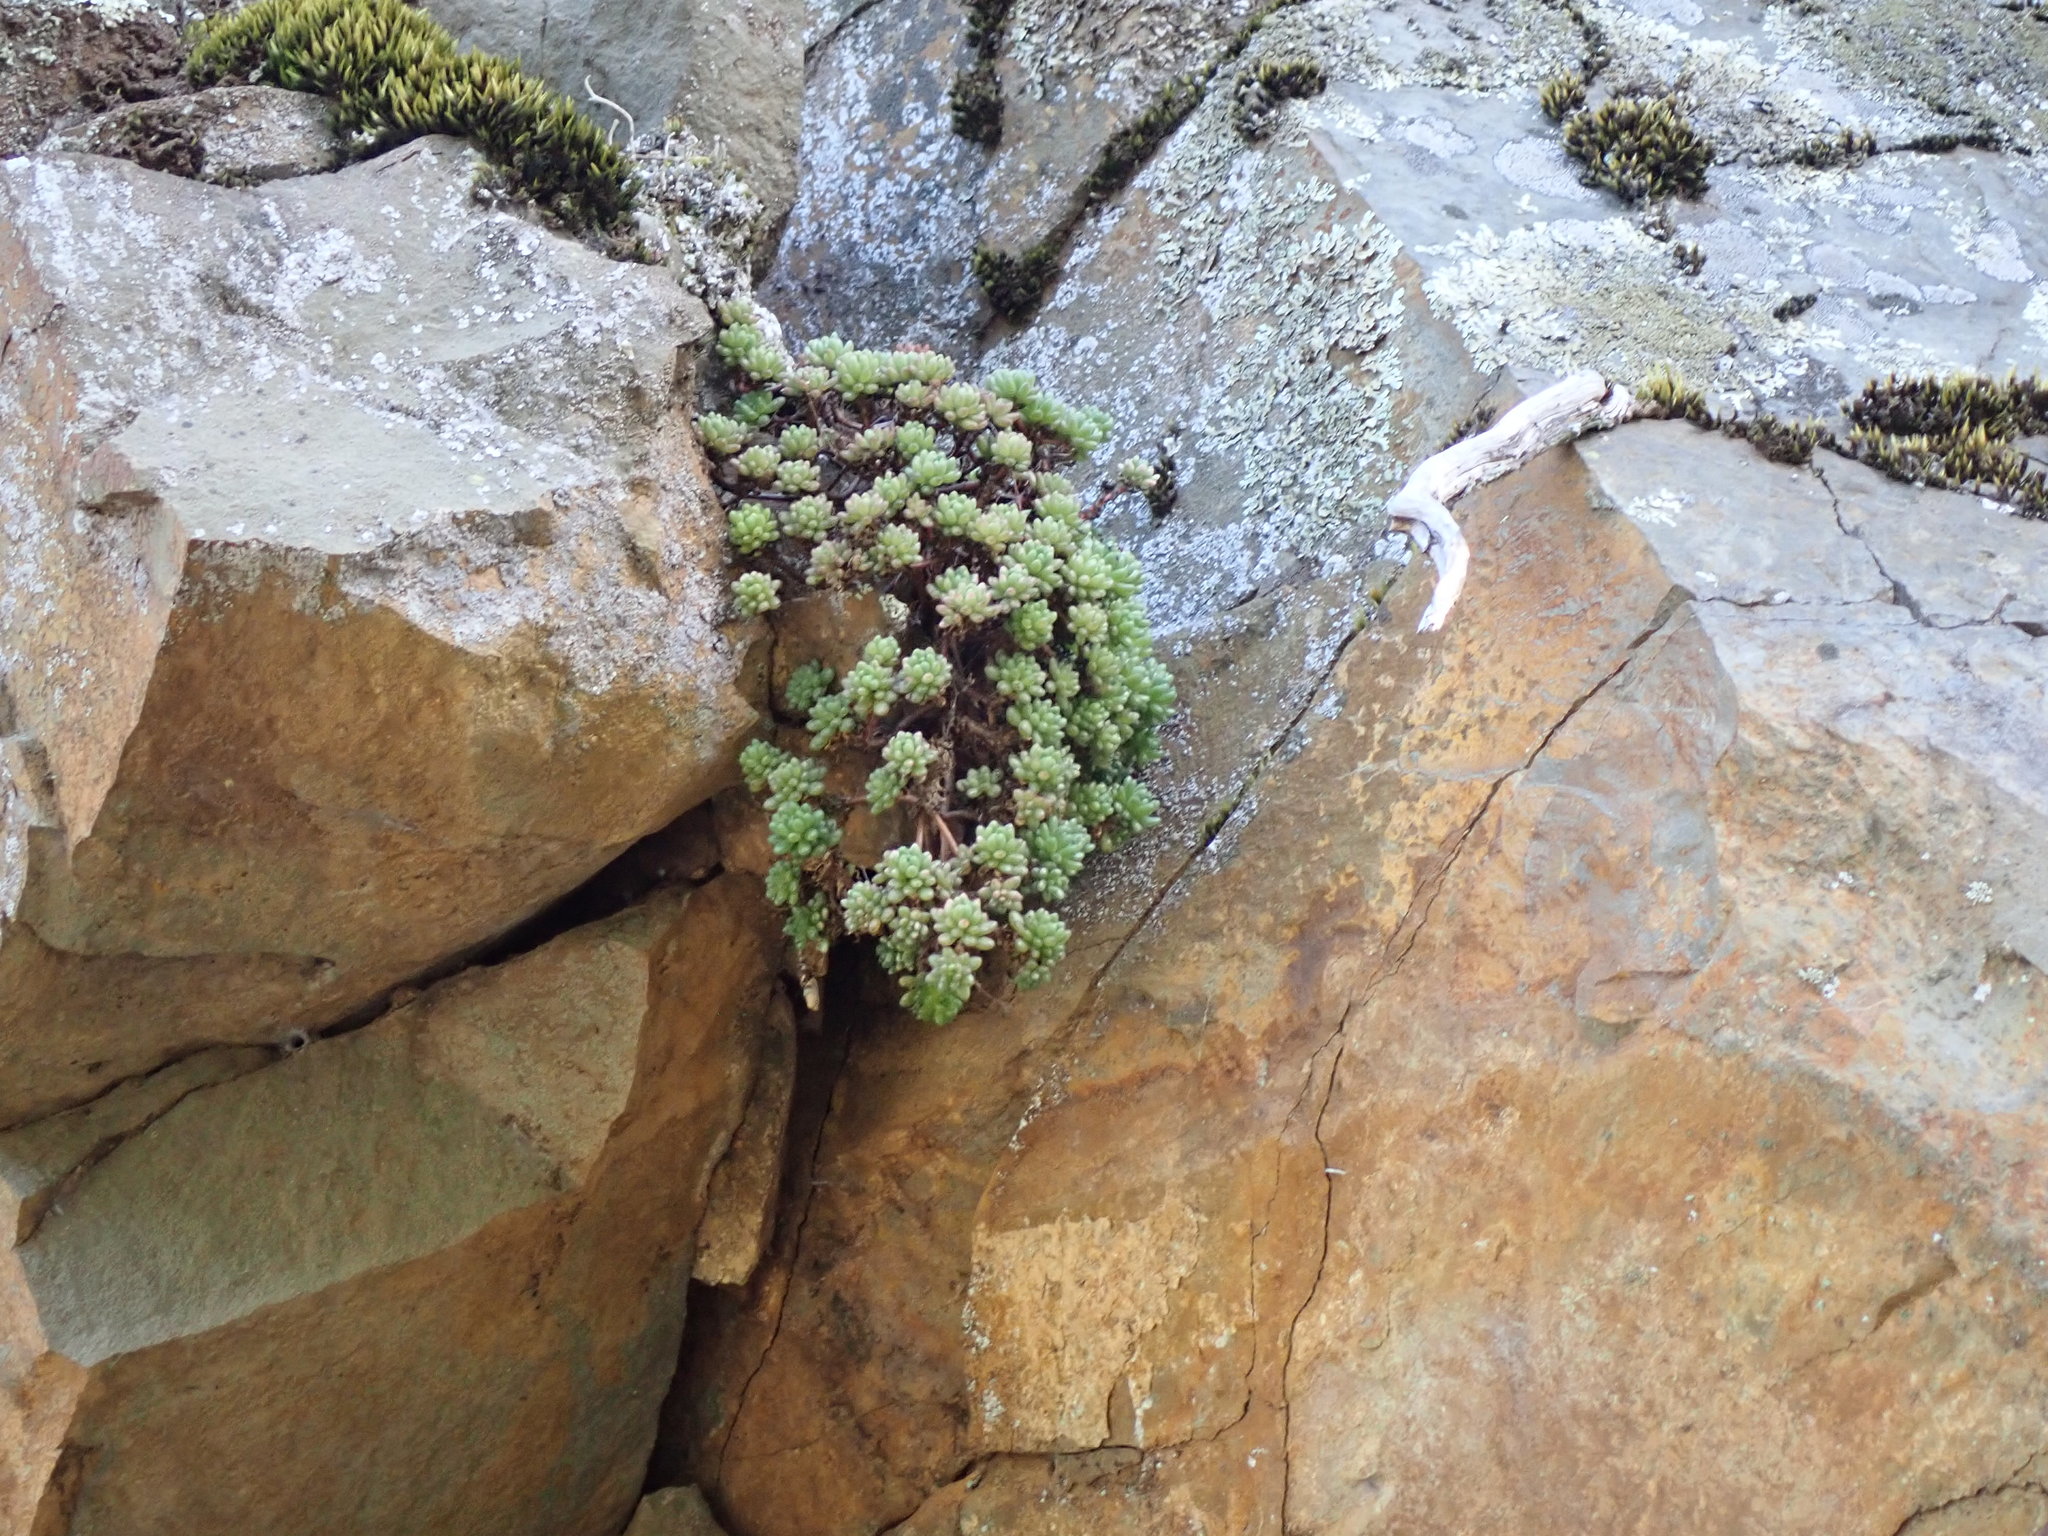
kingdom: Plantae
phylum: Tracheophyta
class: Magnoliopsida
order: Saxifragales
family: Crassulaceae
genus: Sedum
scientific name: Sedum hirsutum
